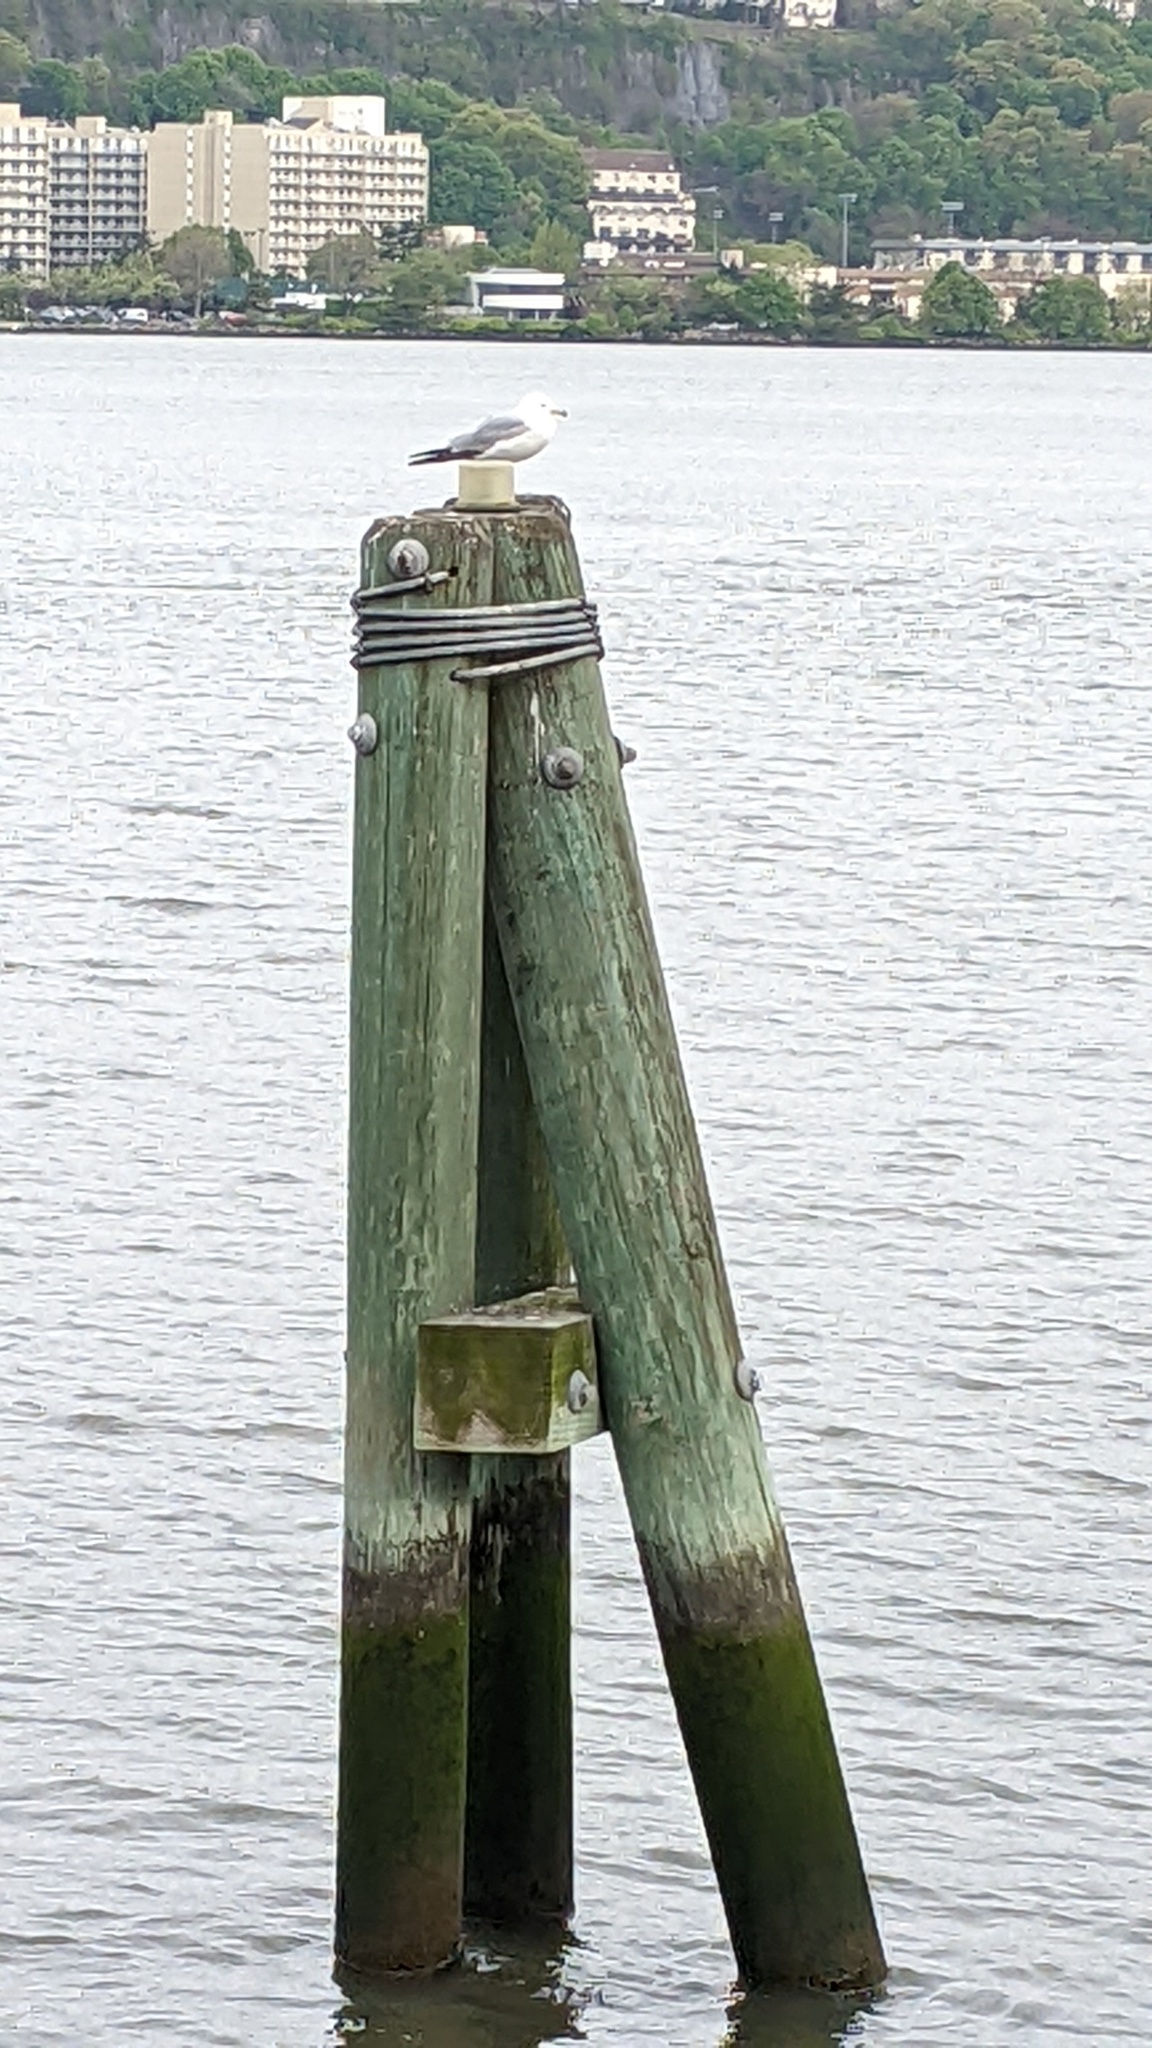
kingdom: Animalia
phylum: Chordata
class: Aves
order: Charadriiformes
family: Laridae
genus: Larus
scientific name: Larus delawarensis
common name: Ring-billed gull
